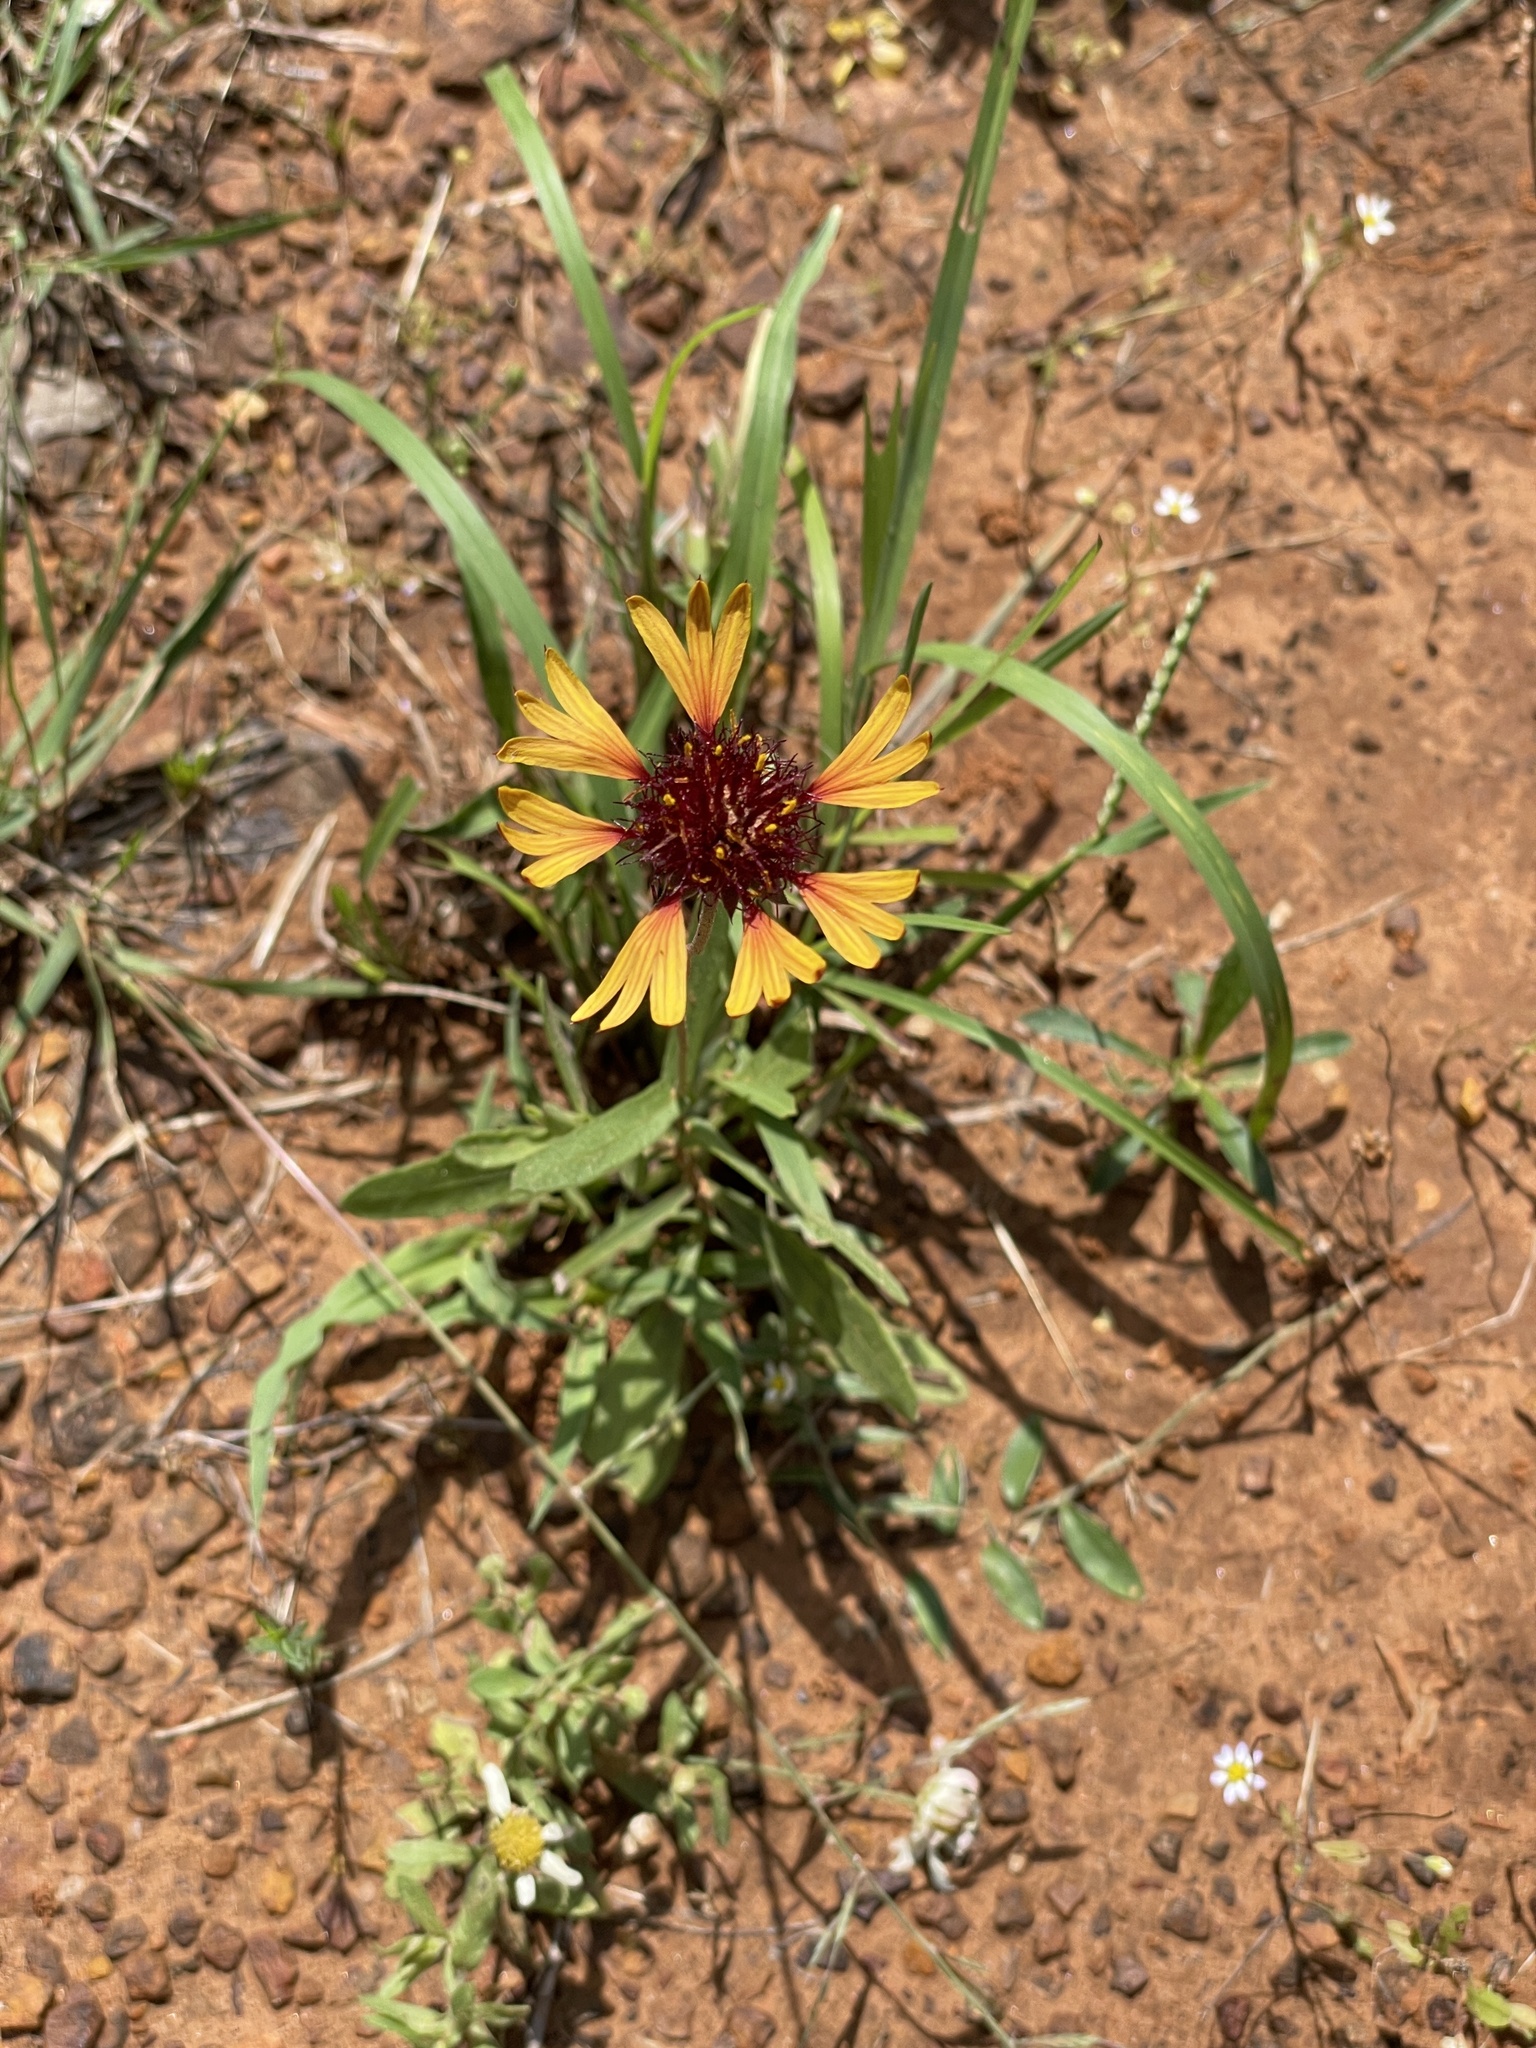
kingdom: Plantae
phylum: Tracheophyta
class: Magnoliopsida
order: Asterales
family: Asteraceae
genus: Gaillardia
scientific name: Gaillardia aestivalis
